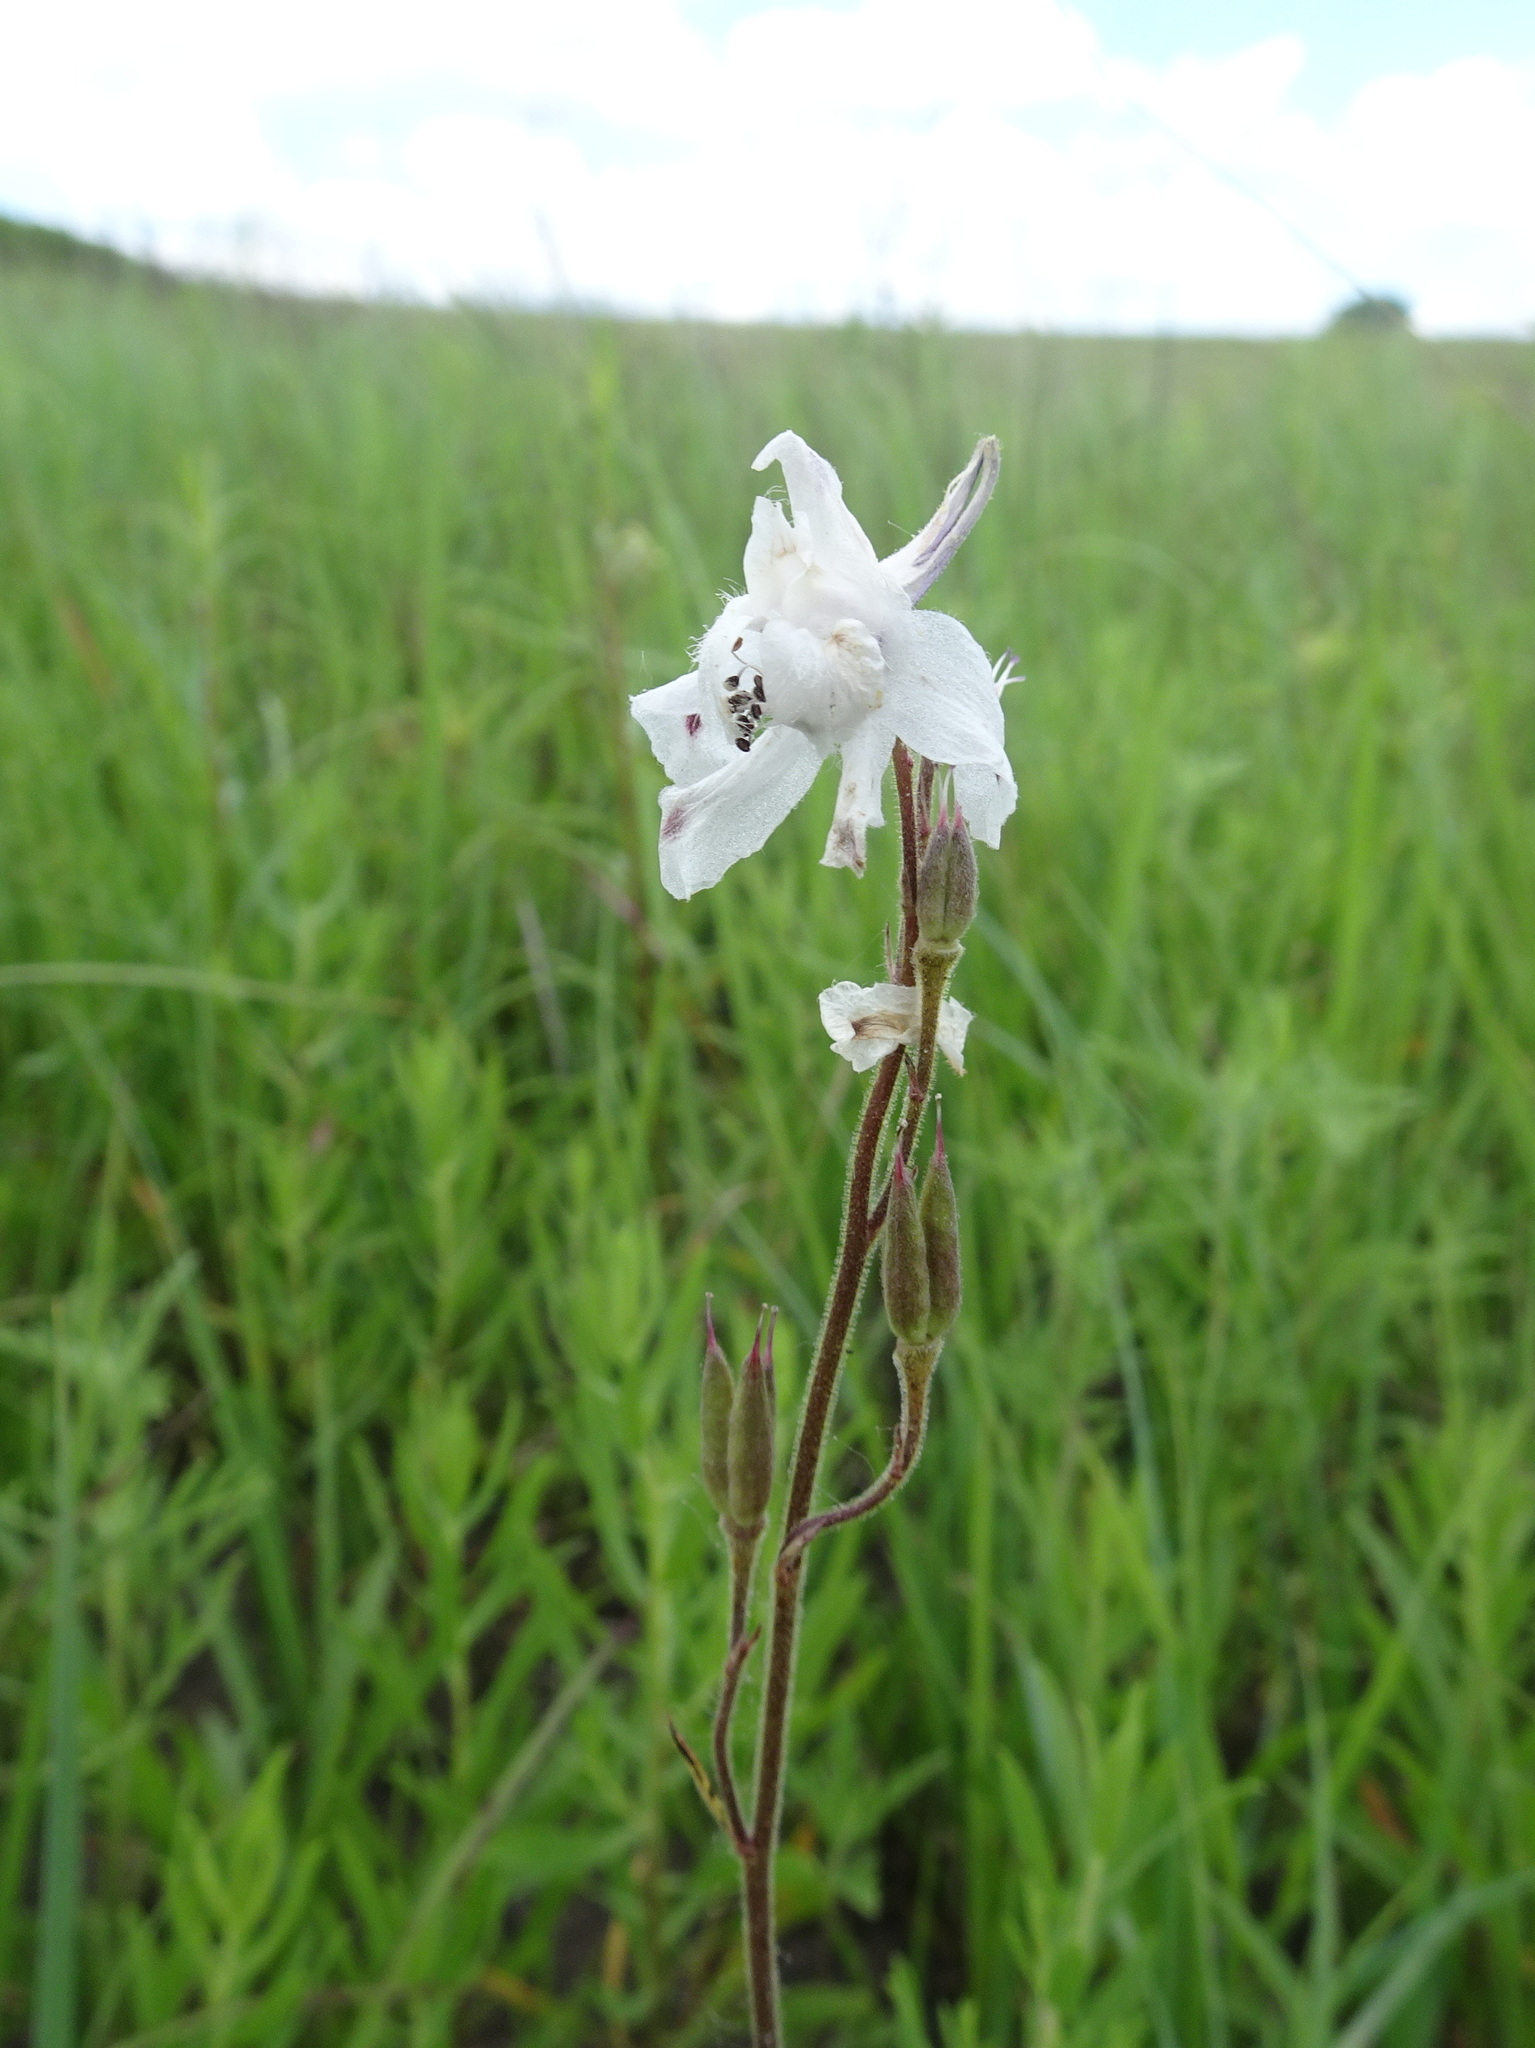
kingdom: Plantae
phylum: Tracheophyta
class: Magnoliopsida
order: Ranunculales
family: Ranunculaceae
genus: Delphinium
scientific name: Delphinium carolinianum
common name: Carolina larkspur
